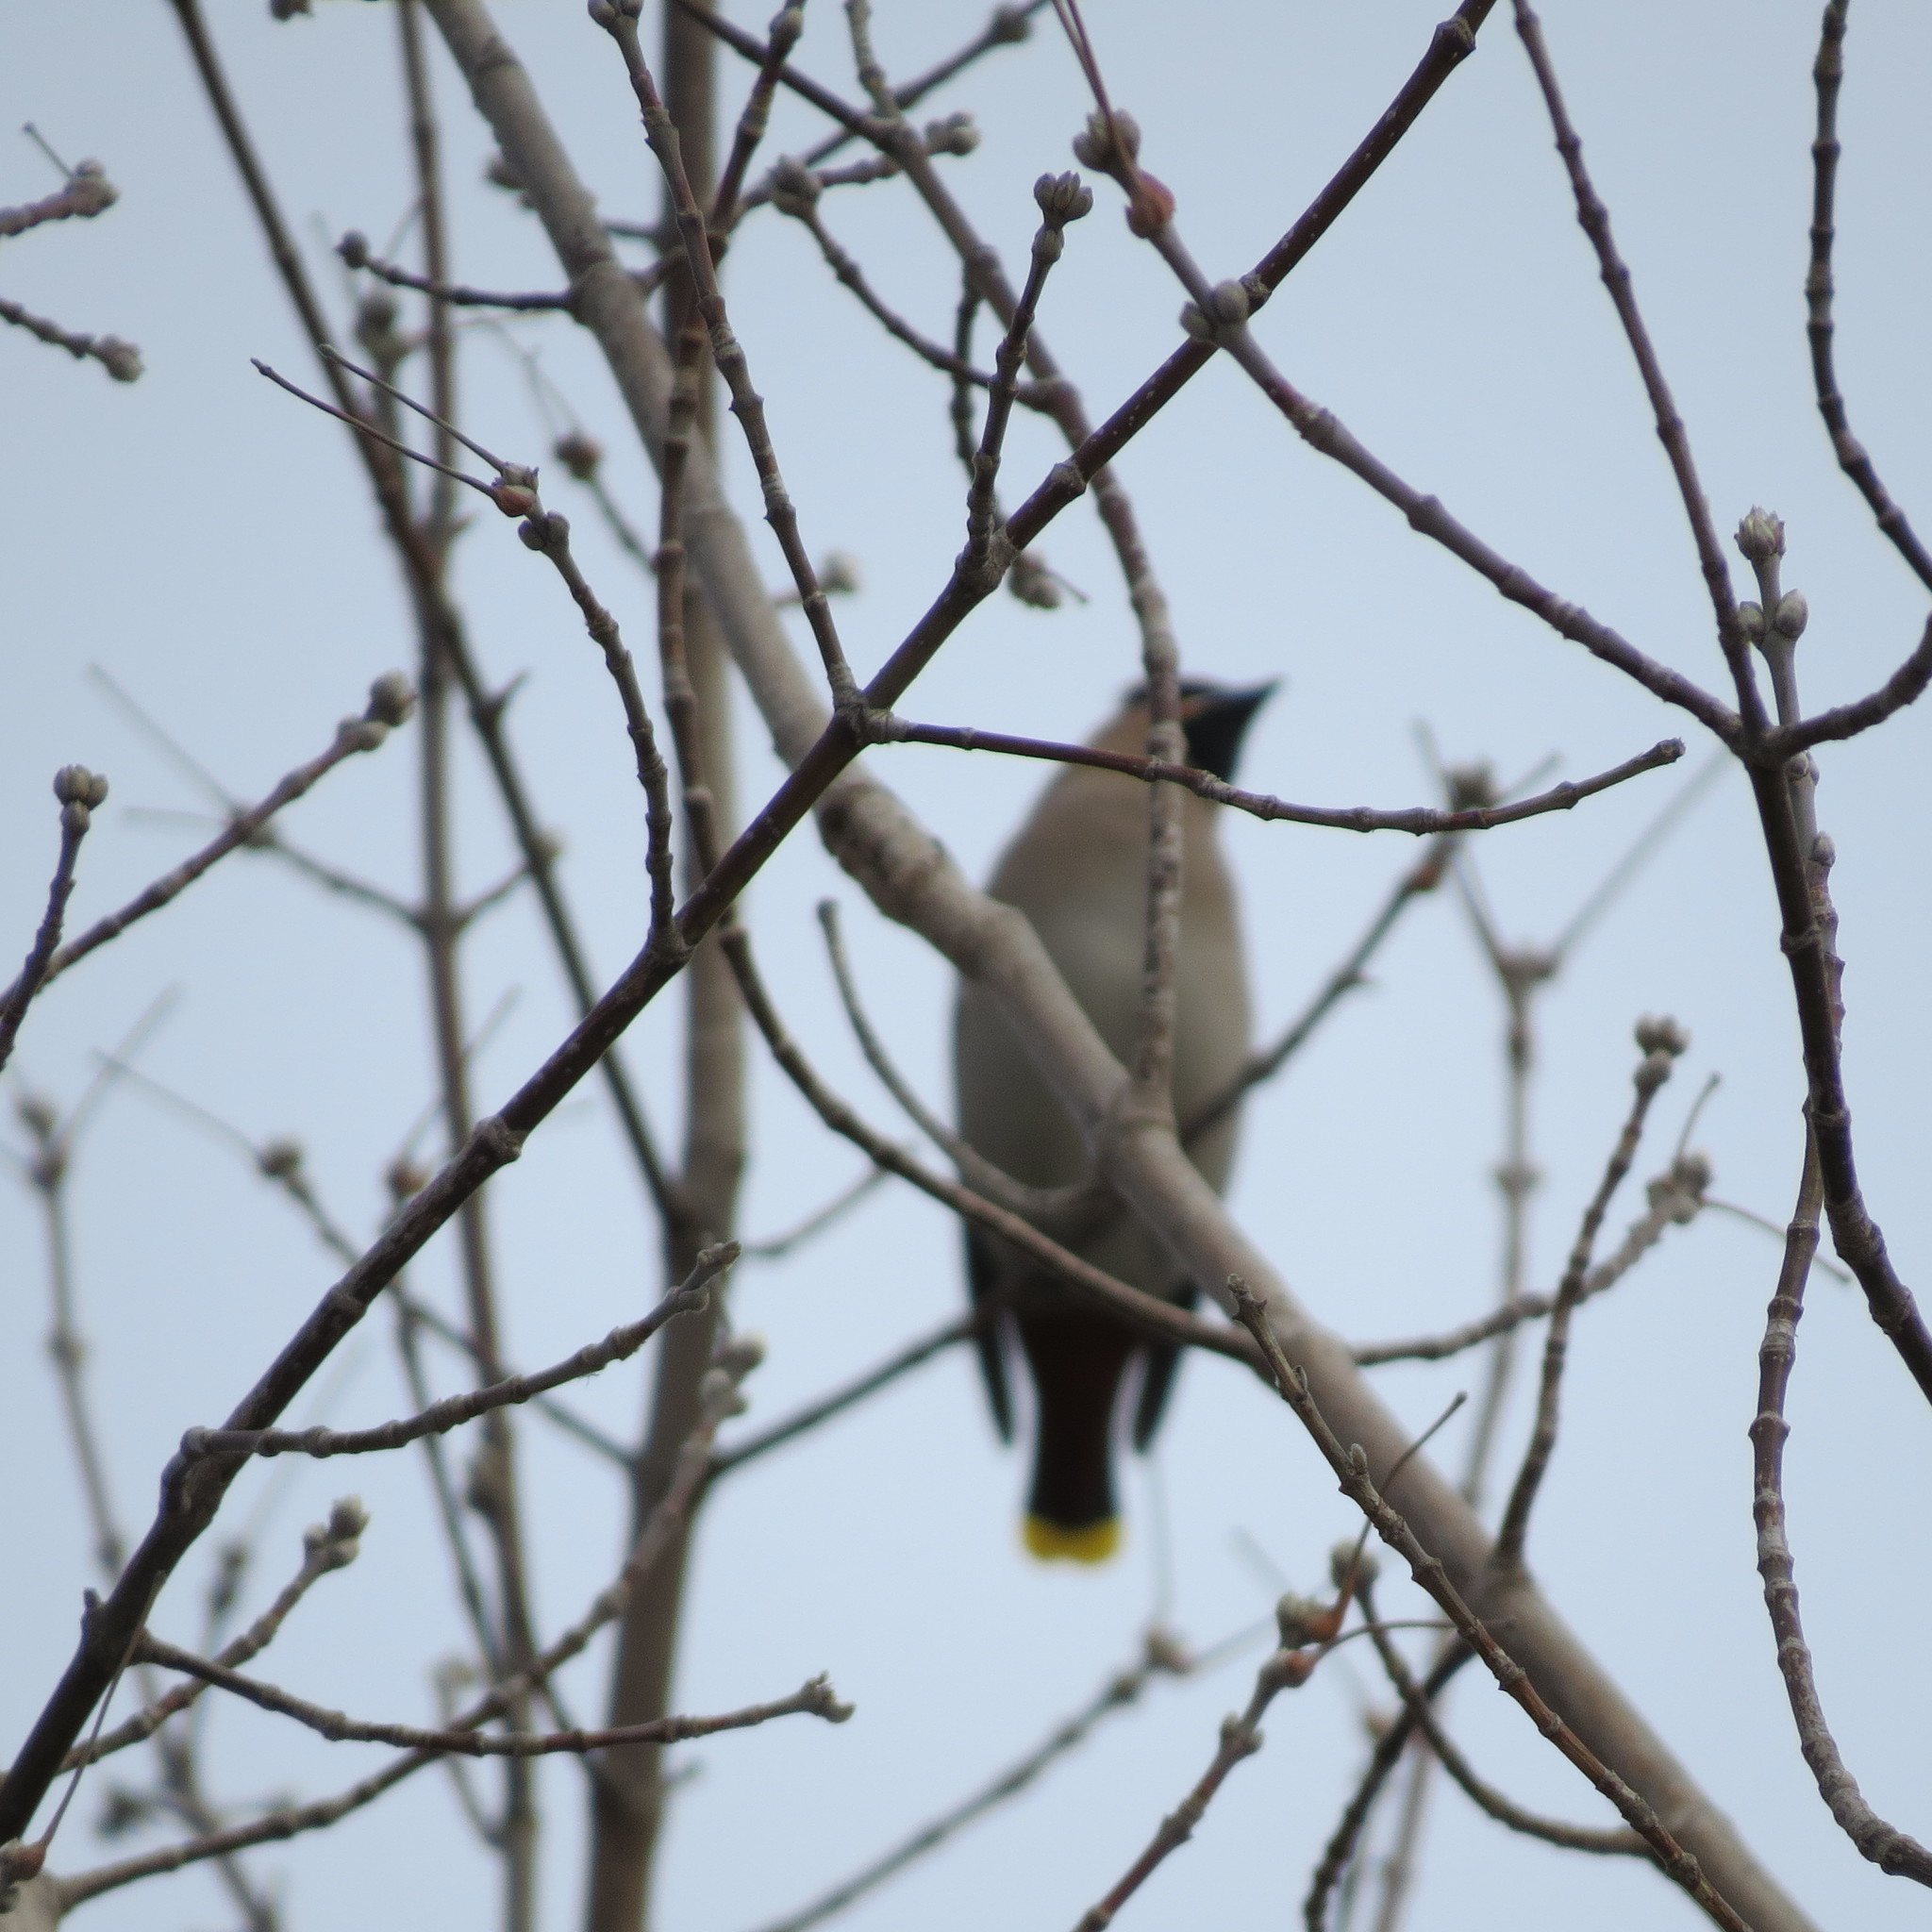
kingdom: Animalia
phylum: Chordata
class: Aves
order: Passeriformes
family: Bombycillidae
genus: Bombycilla
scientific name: Bombycilla garrulus
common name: Bohemian waxwing
